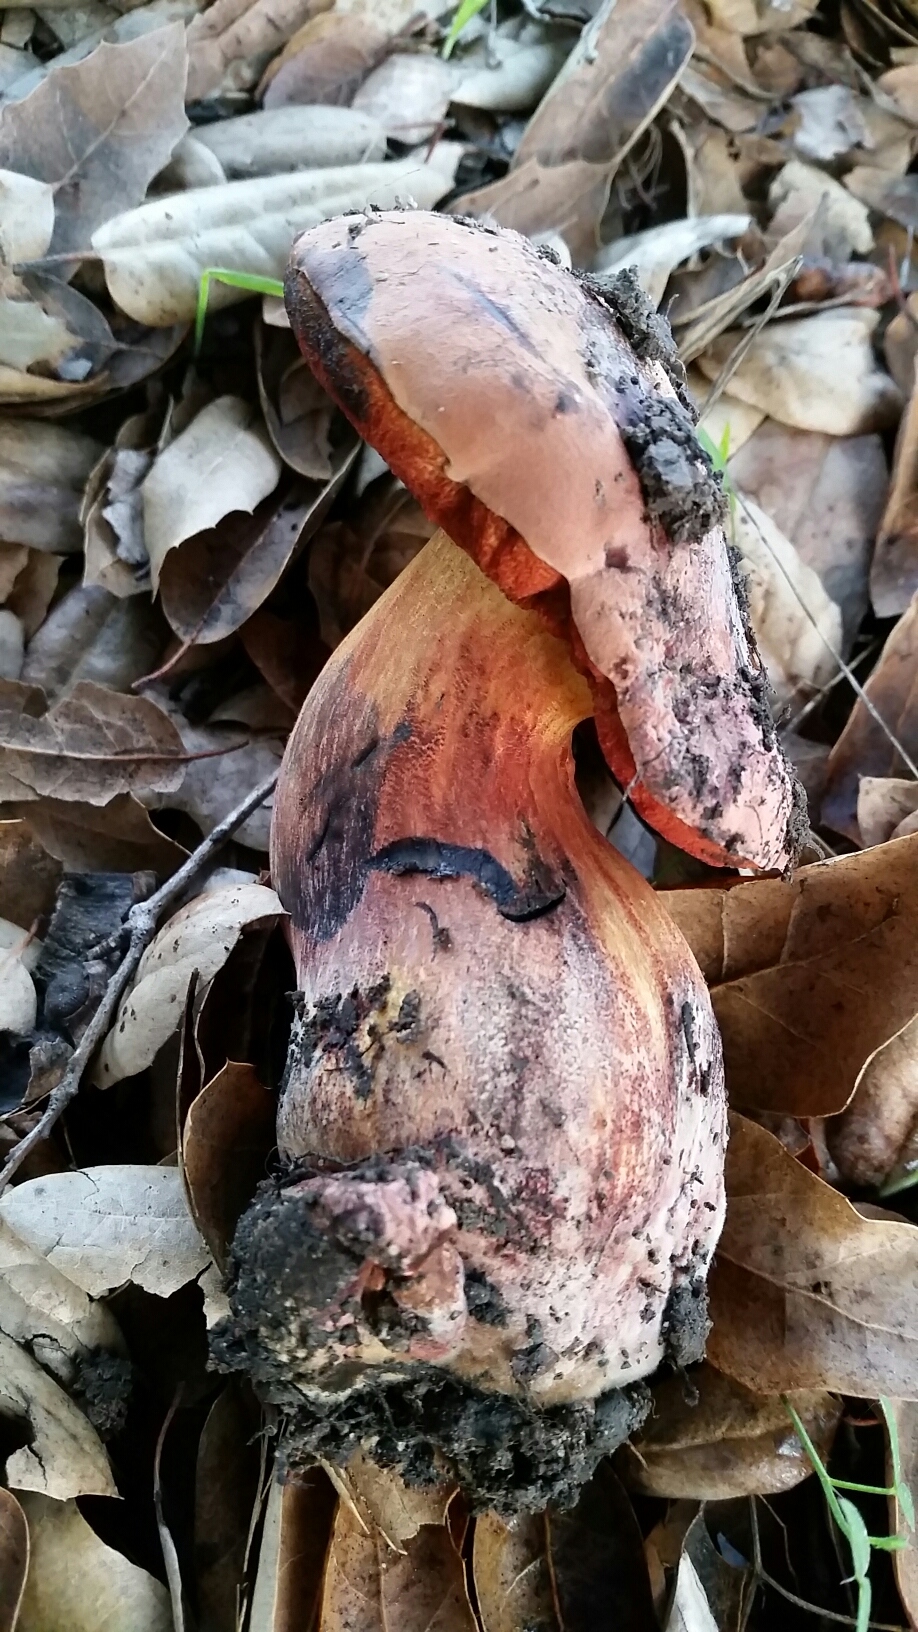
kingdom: Fungi
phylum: Basidiomycota
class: Agaricomycetes
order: Boletales
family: Boletaceae
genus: Suillellus
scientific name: Suillellus amygdalinus
